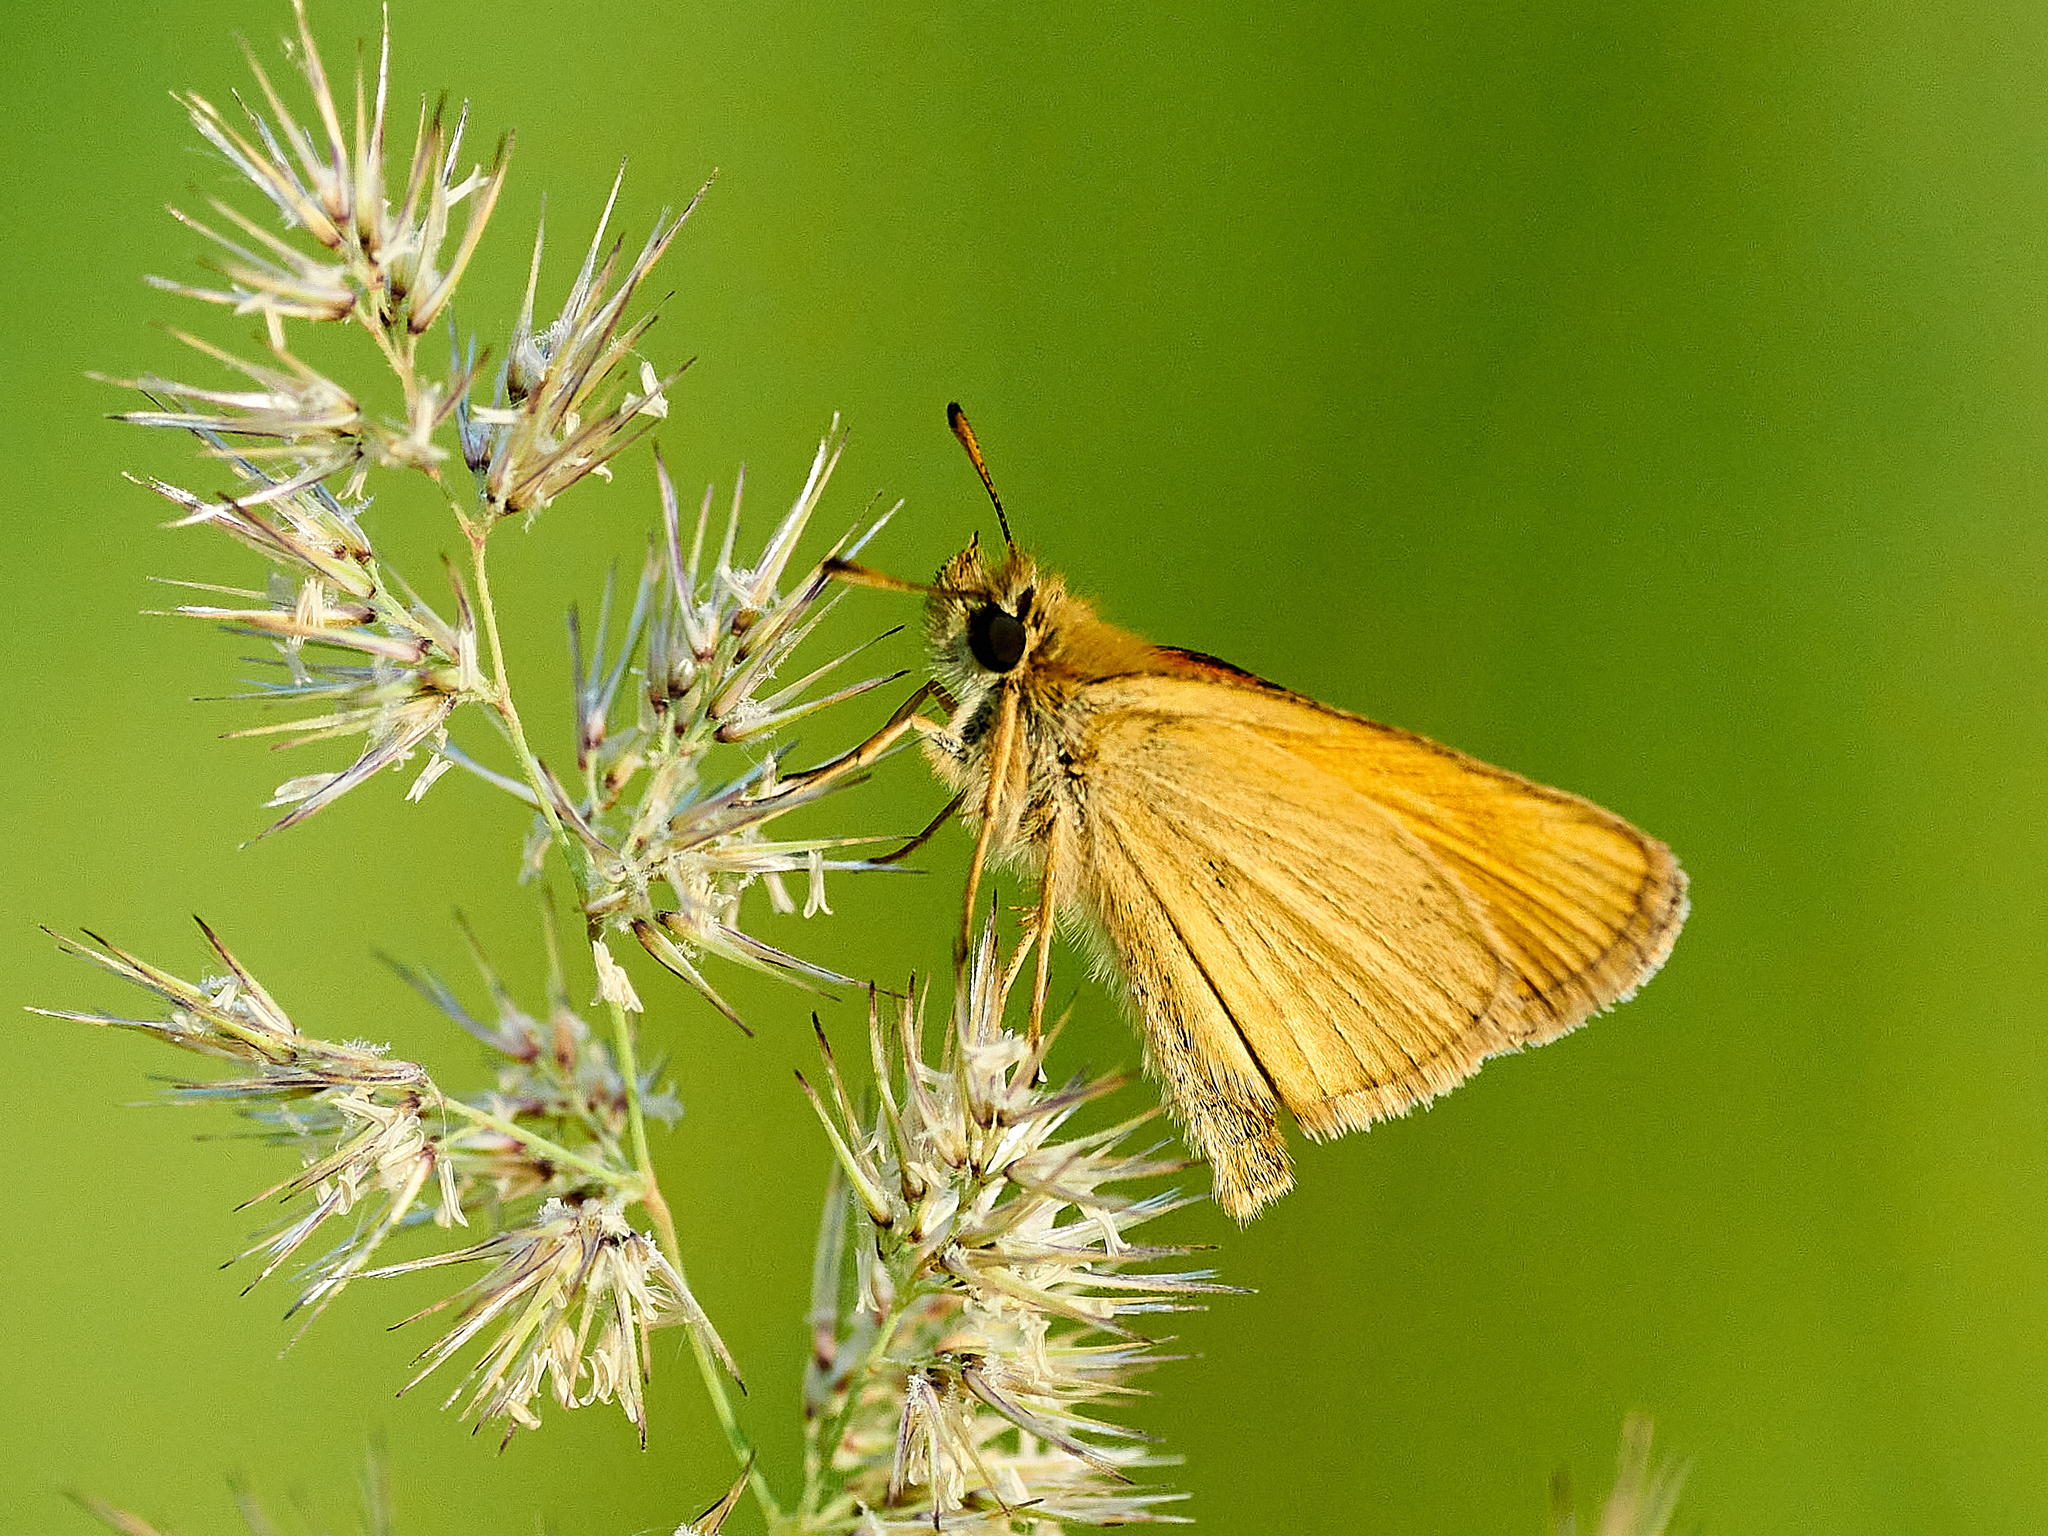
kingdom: Animalia
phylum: Arthropoda
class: Insecta
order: Lepidoptera
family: Hesperiidae
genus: Thymelicus
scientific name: Thymelicus lineola
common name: Essex skipper
